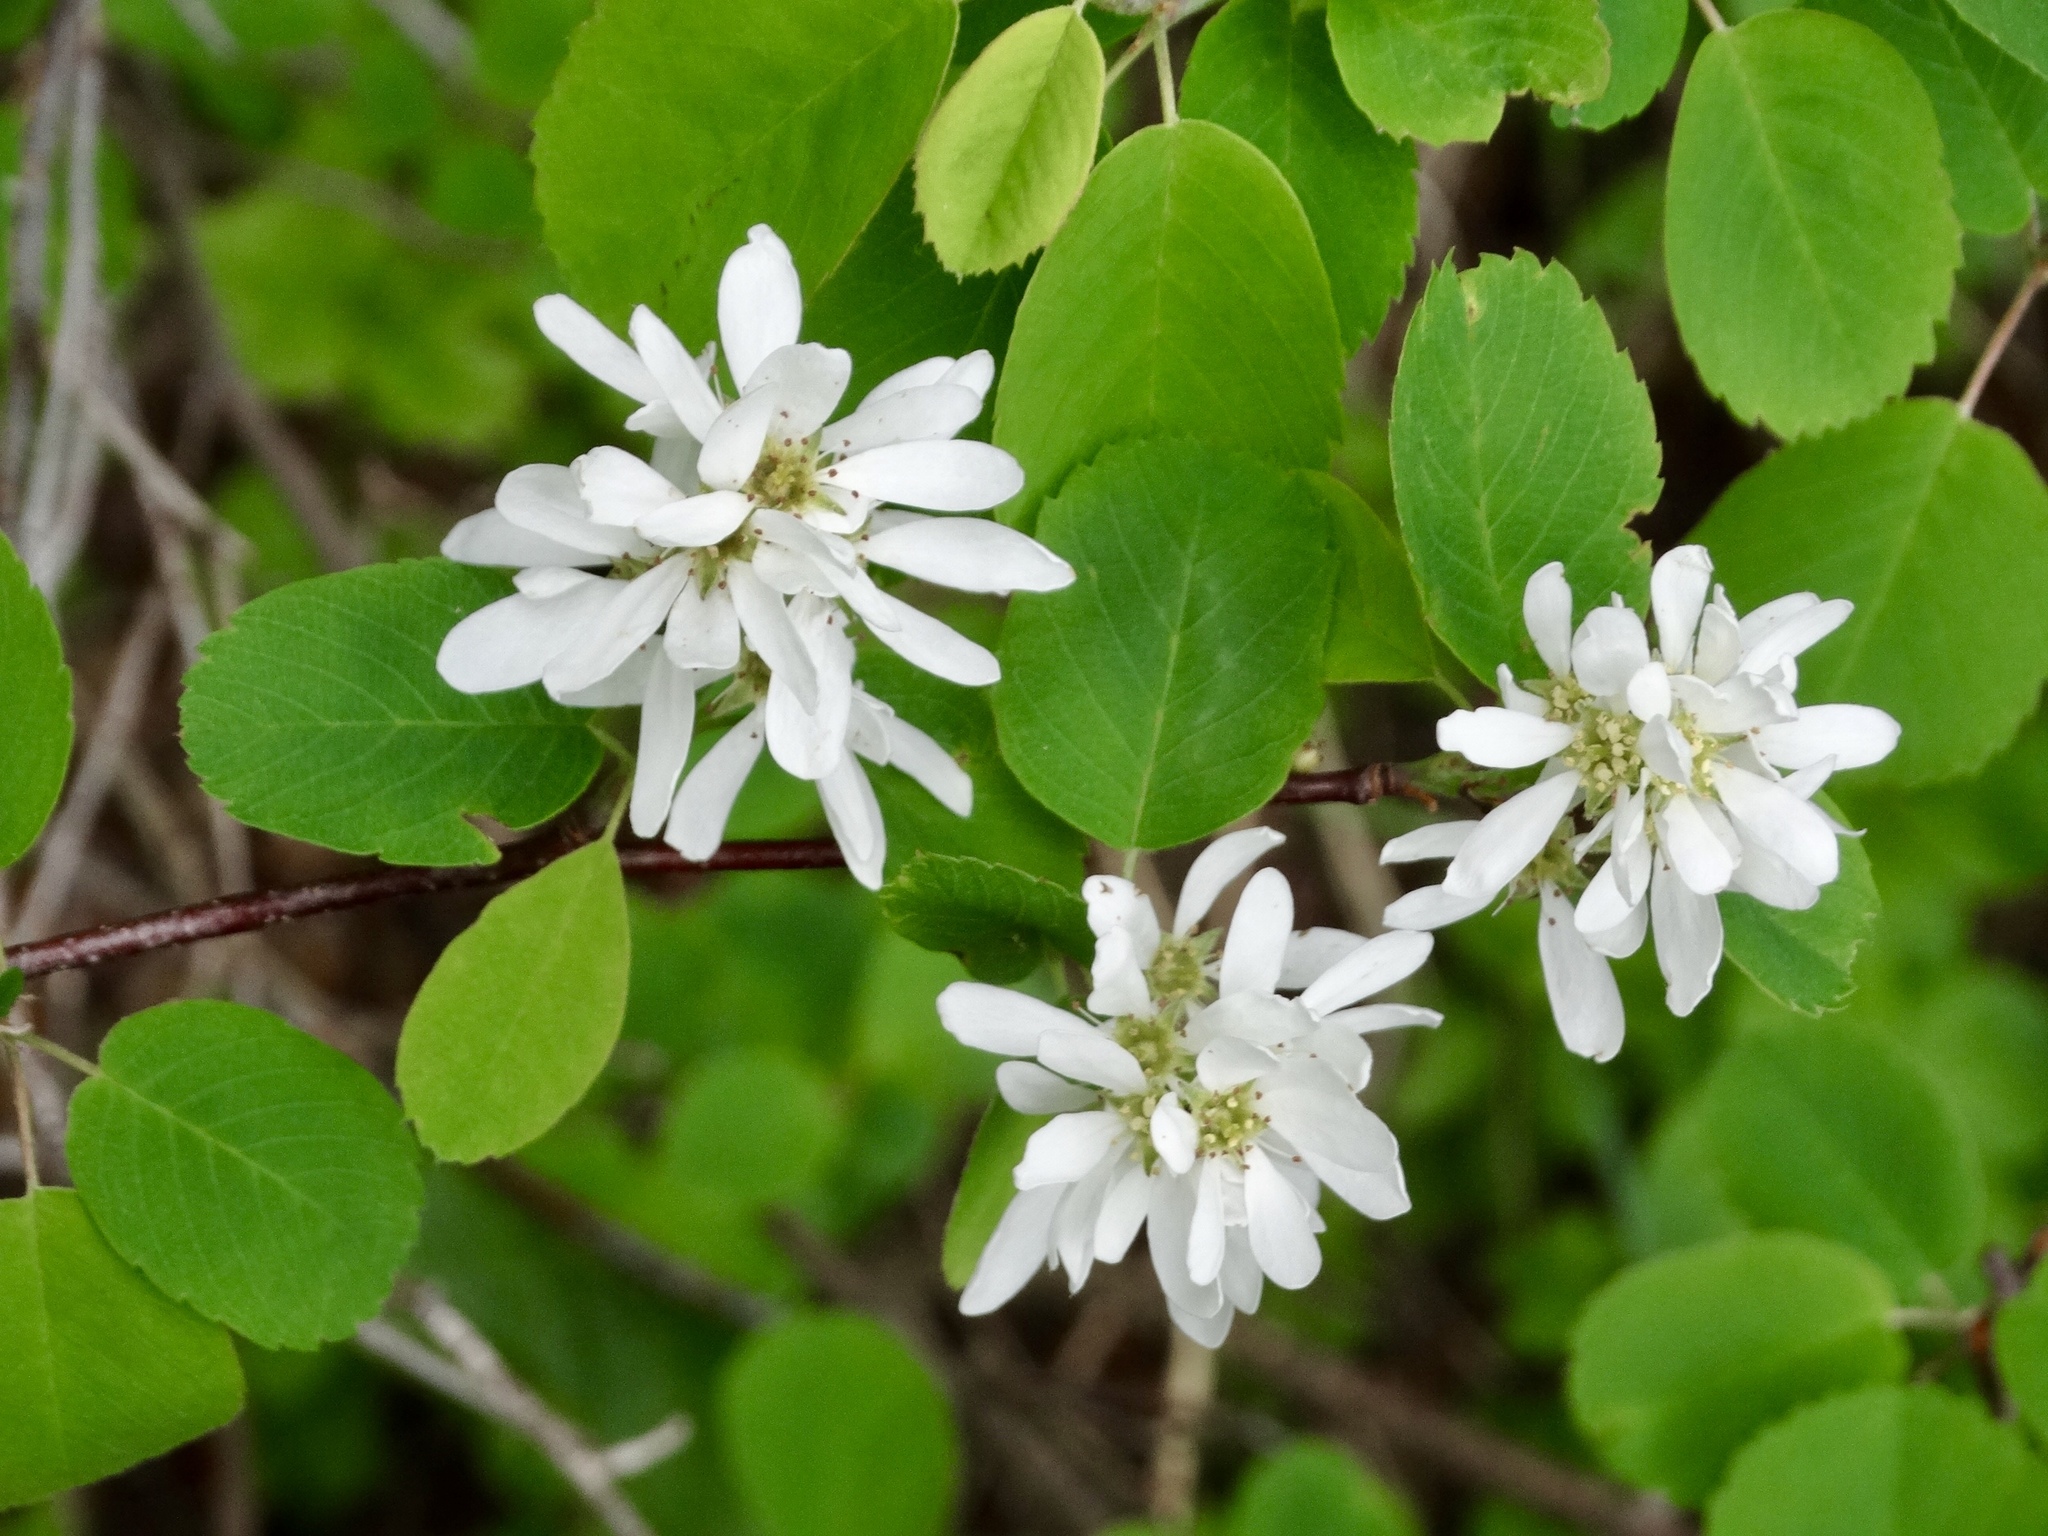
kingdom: Plantae
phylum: Tracheophyta
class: Magnoliopsida
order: Rosales
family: Rosaceae
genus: Amelanchier
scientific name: Amelanchier alnifolia
